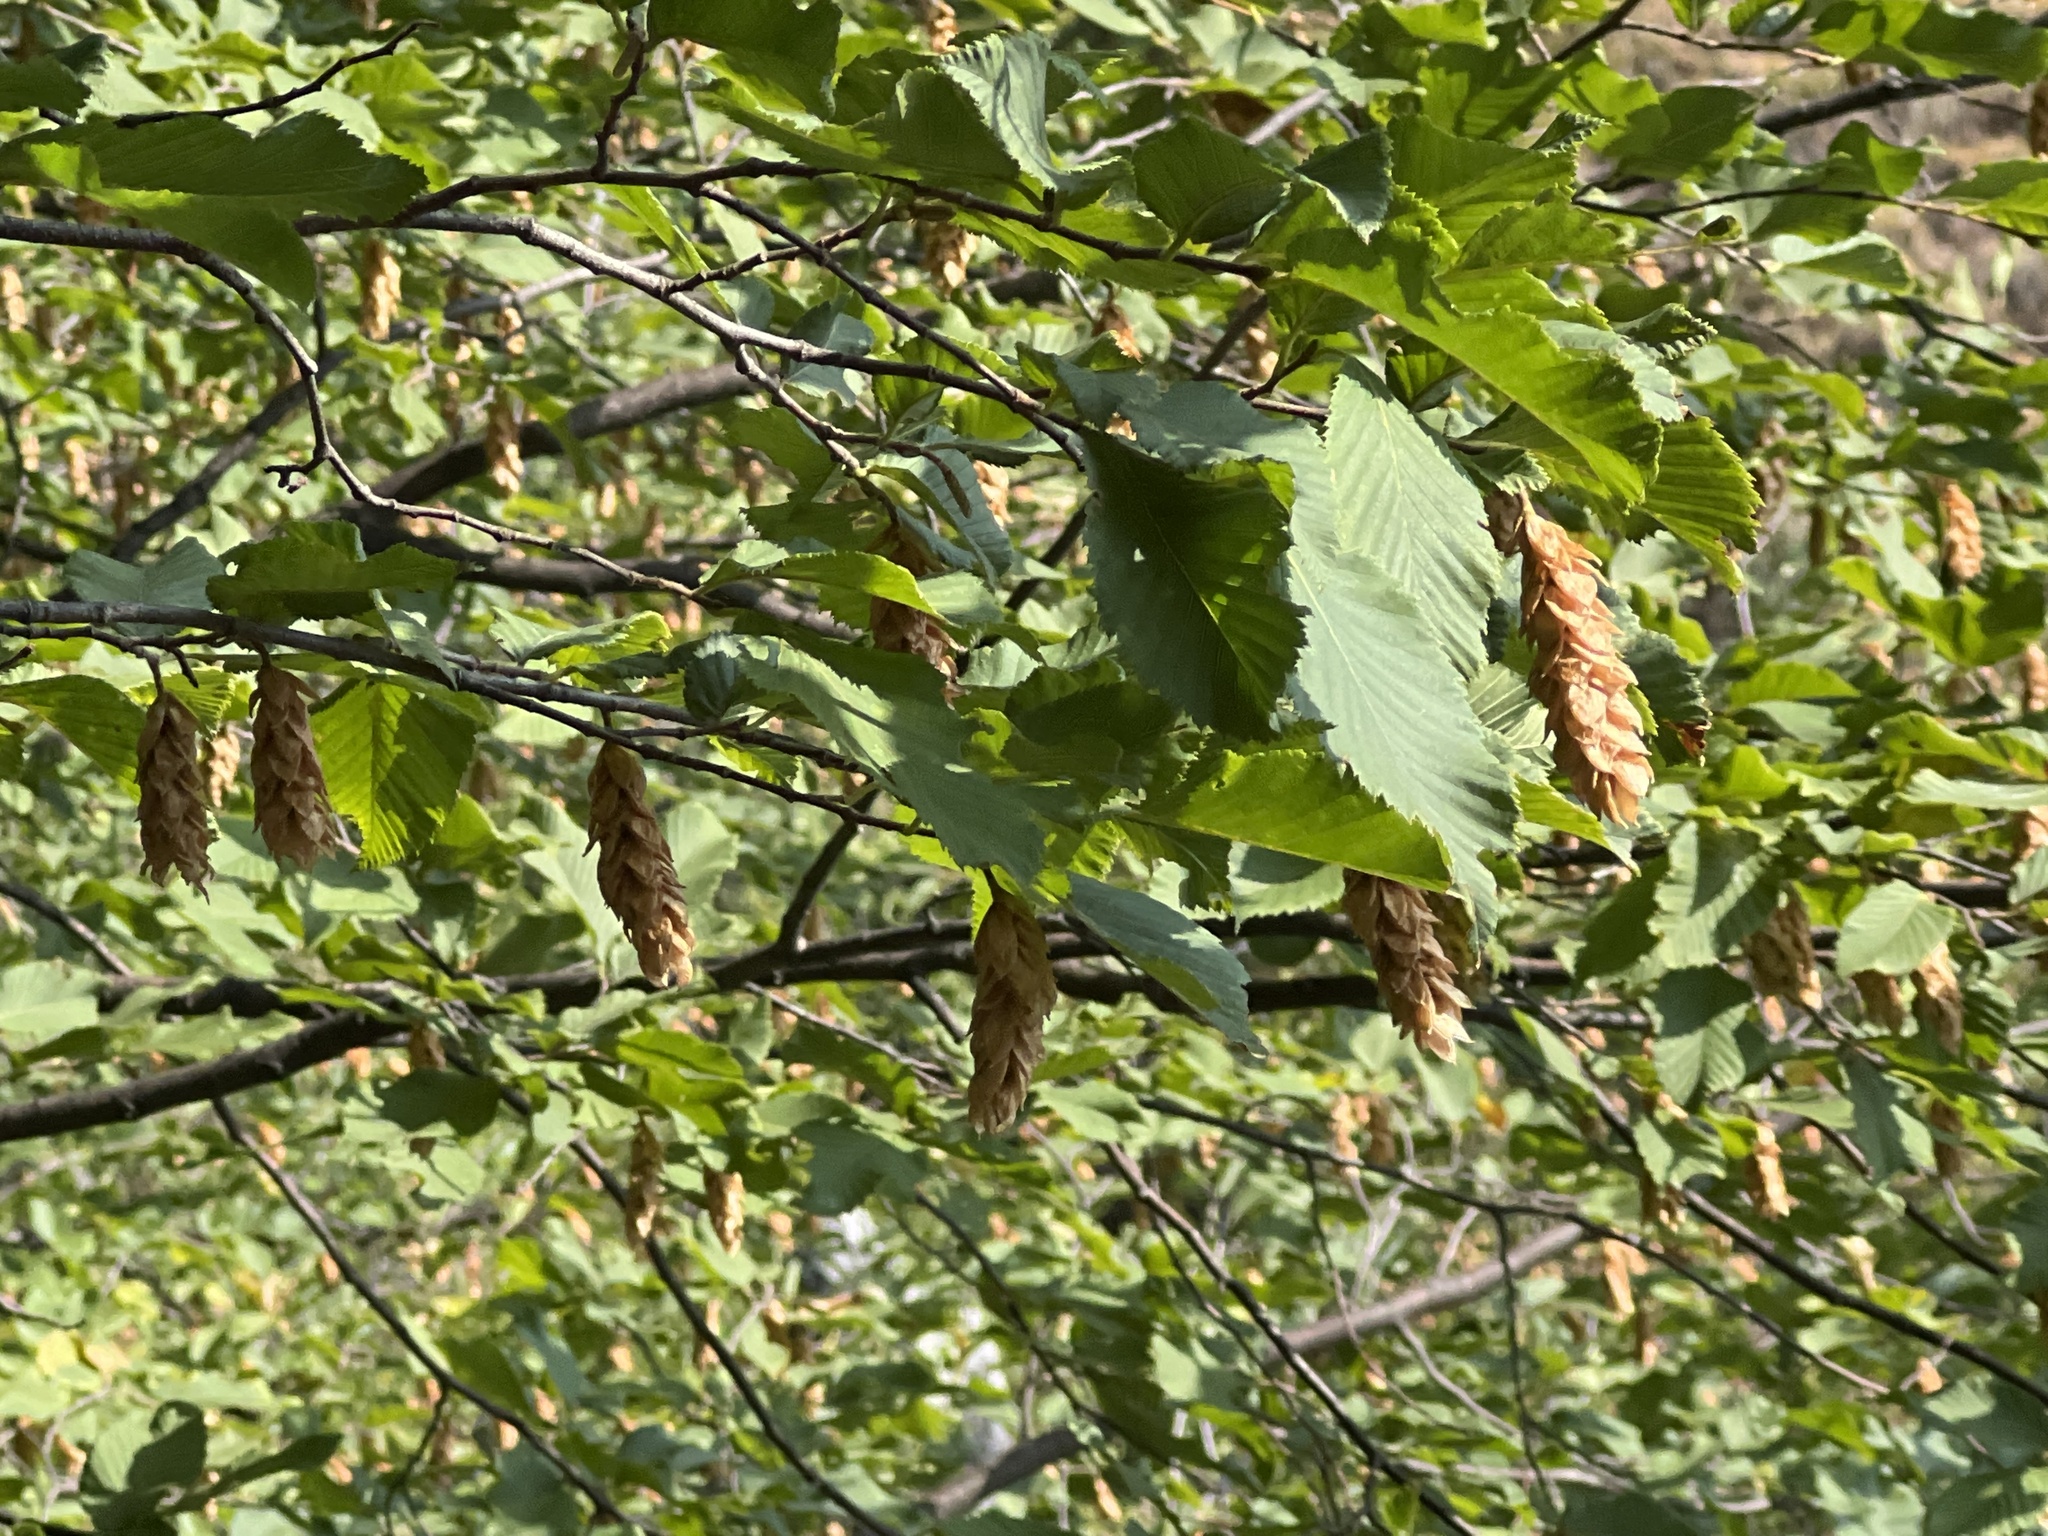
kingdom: Plantae
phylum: Tracheophyta
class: Magnoliopsida
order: Fagales
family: Betulaceae
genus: Ostrya
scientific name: Ostrya carpinifolia
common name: European hop-hornbeam
